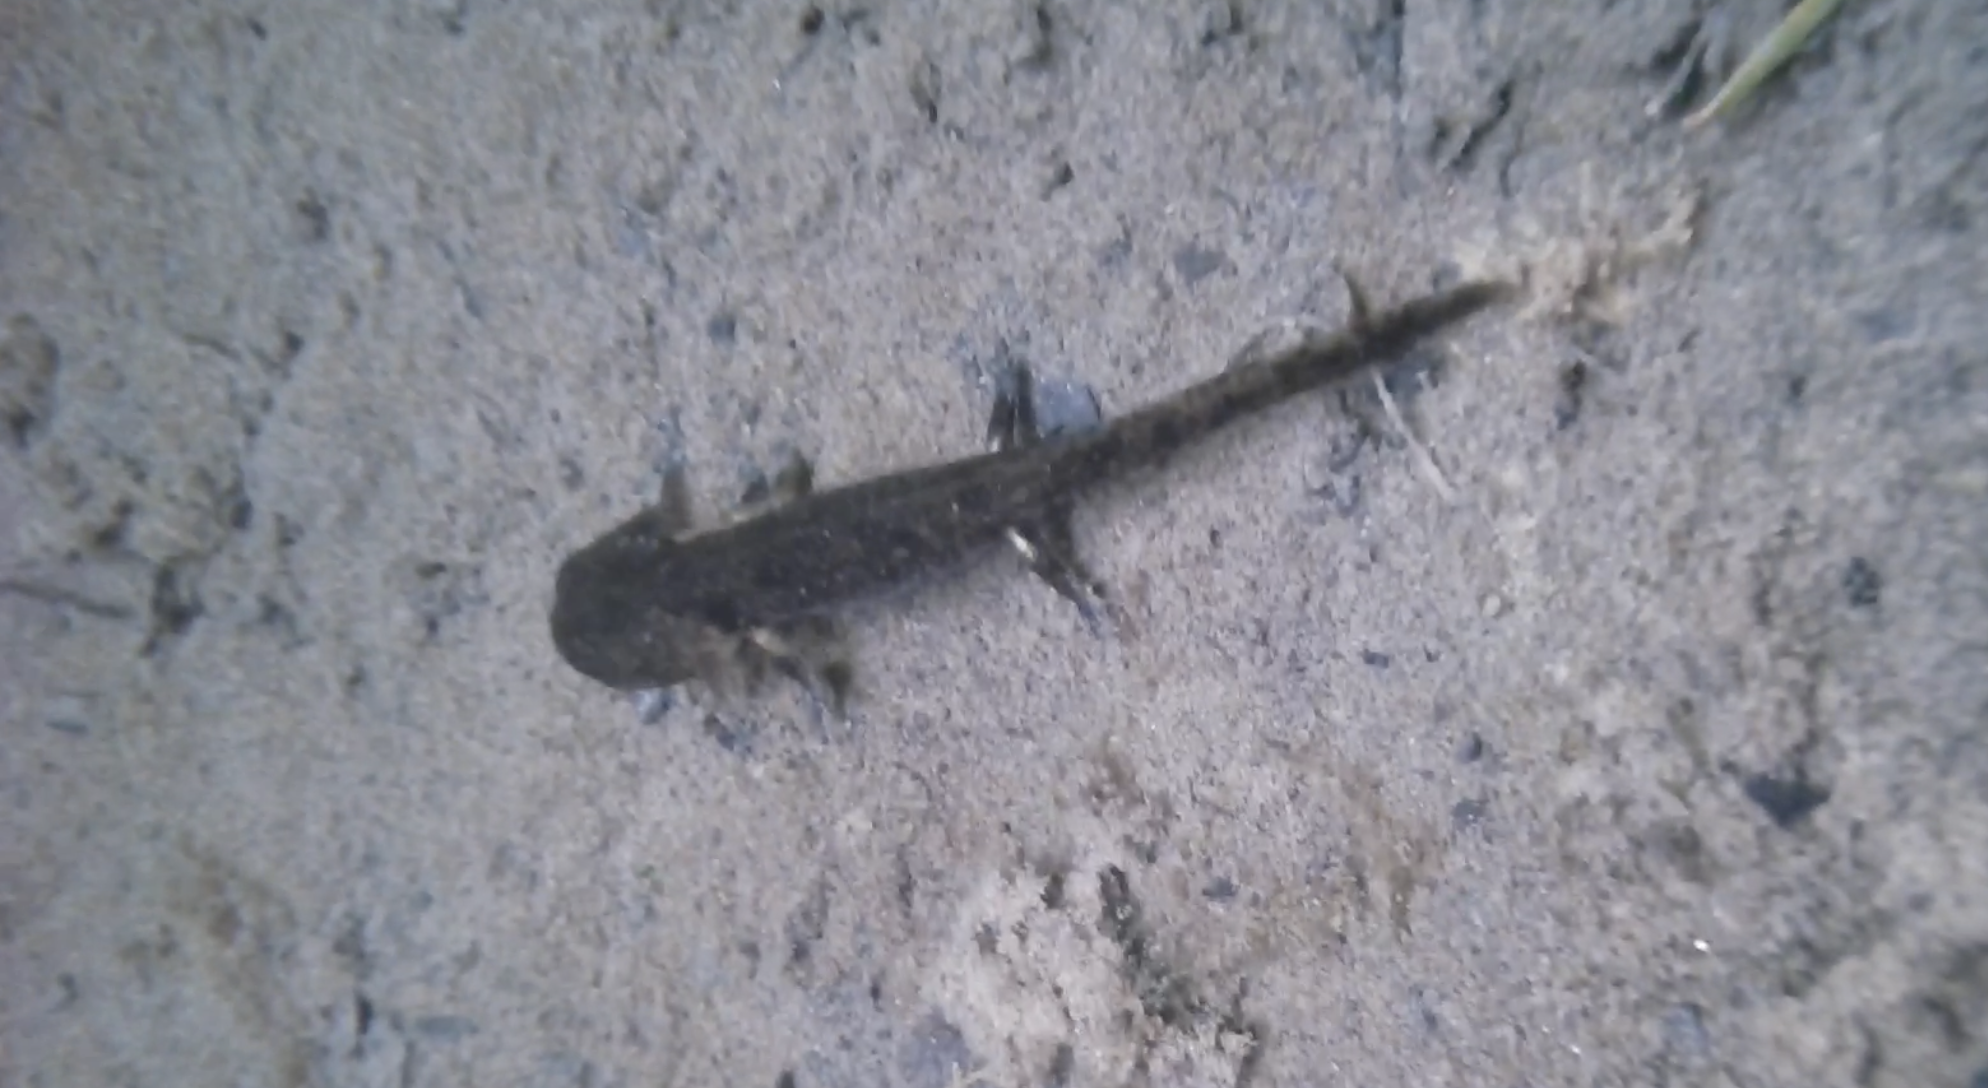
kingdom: Animalia
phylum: Chordata
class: Amphibia
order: Caudata
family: Salamandridae
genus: Salamandra
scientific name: Salamandra salamandra
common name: Fire salamander
